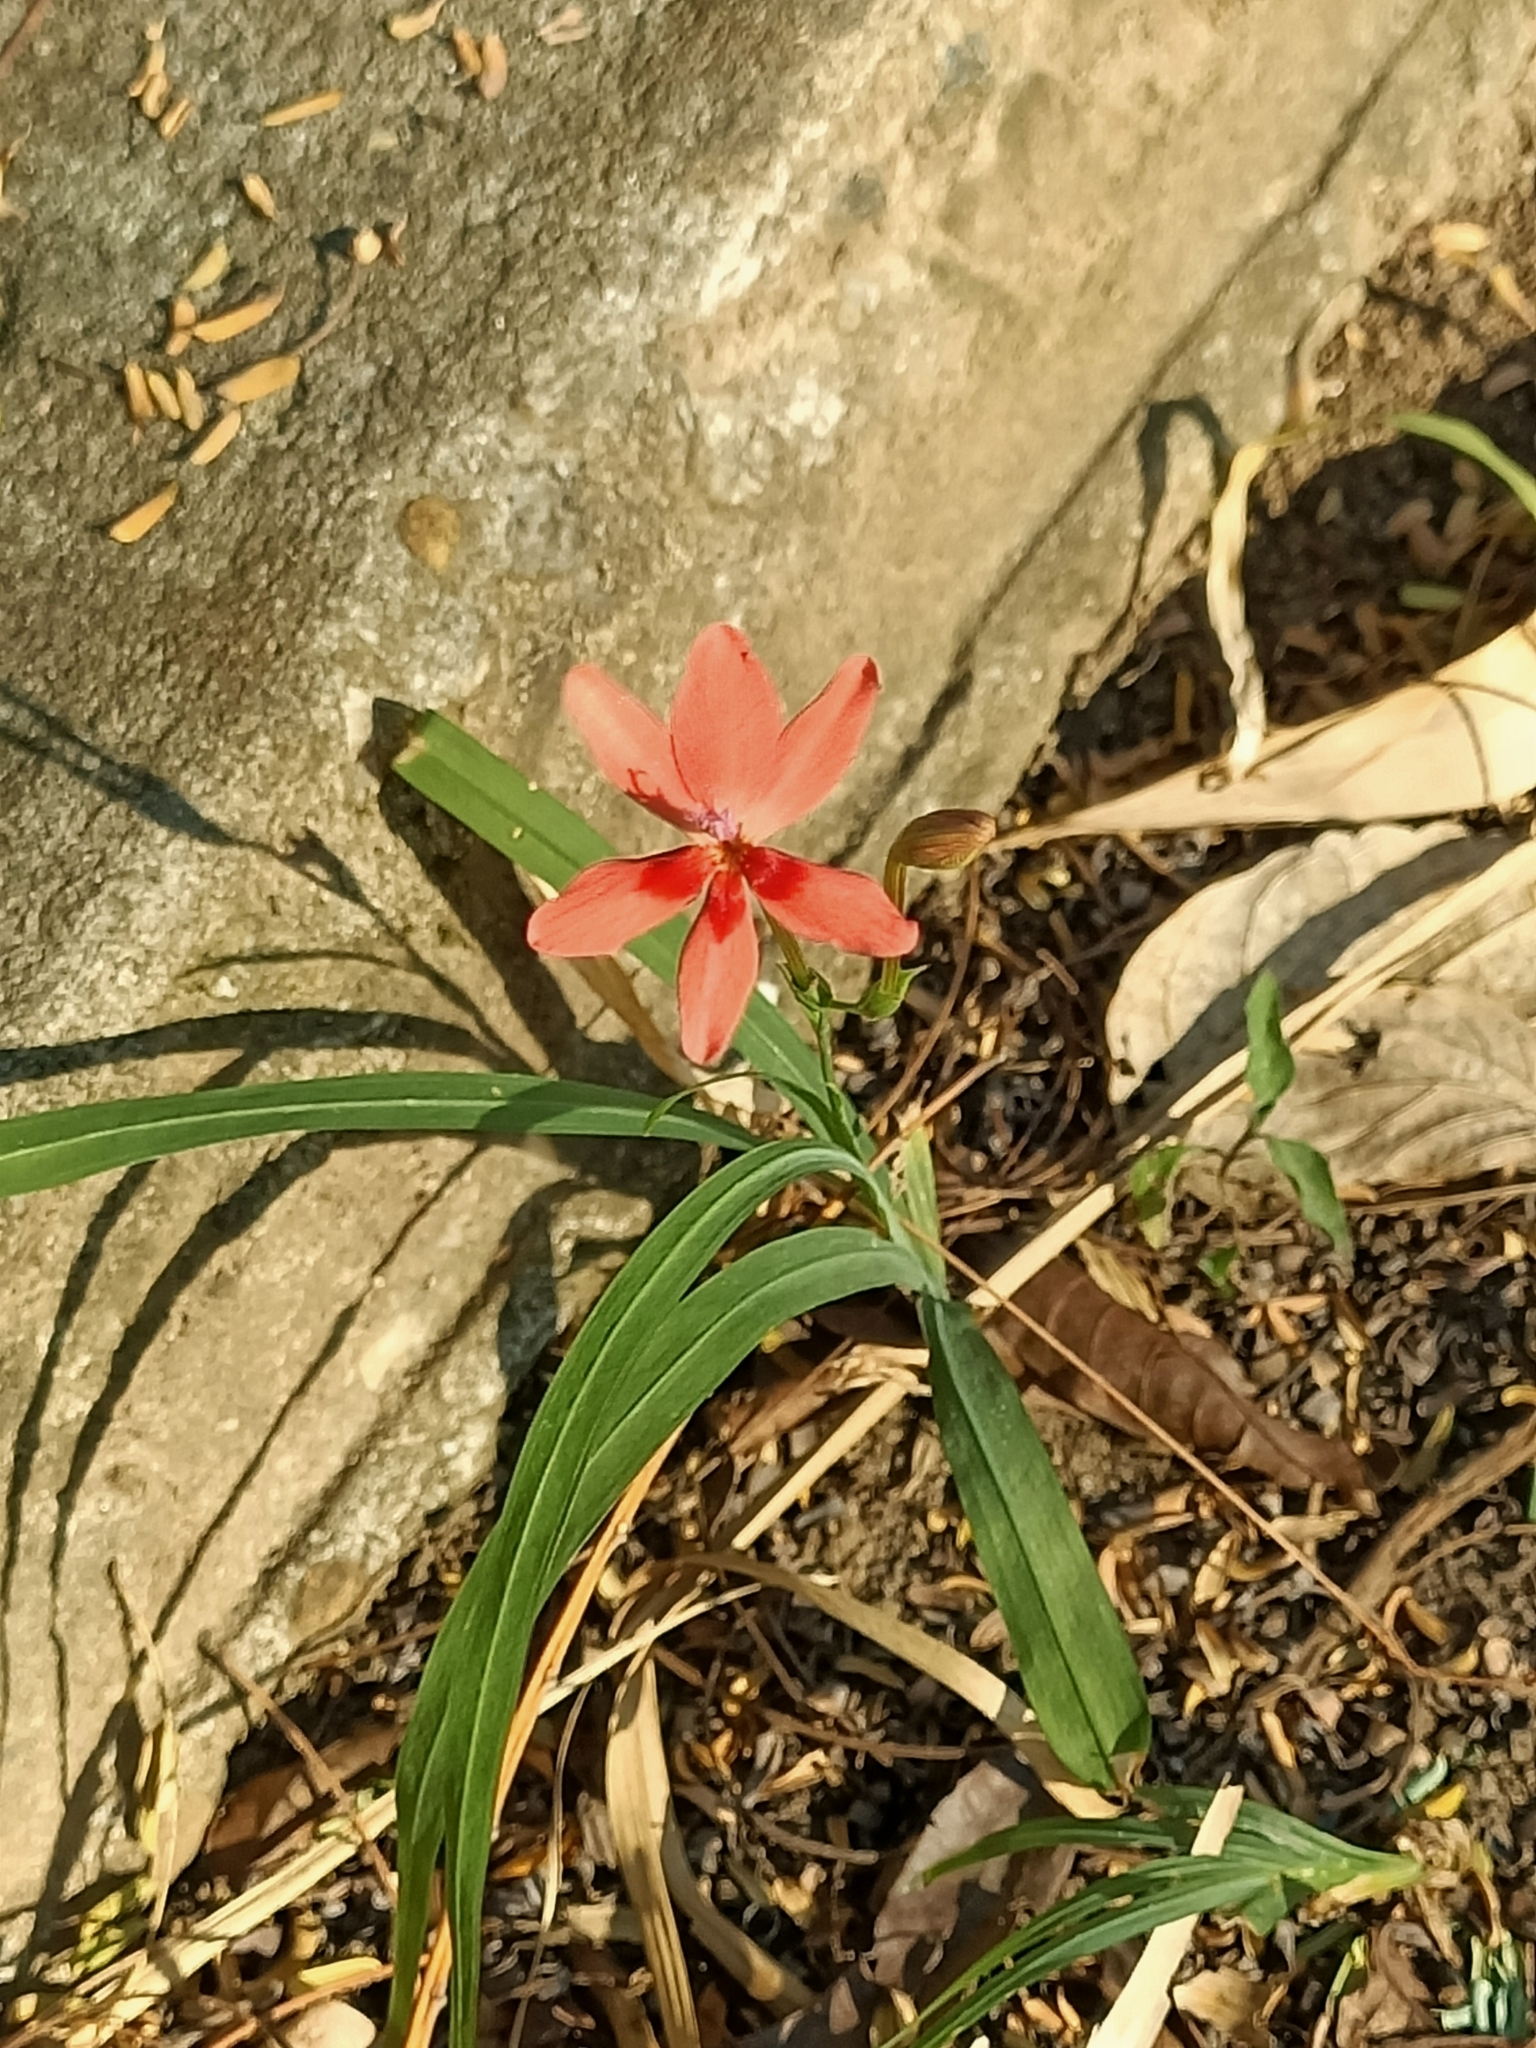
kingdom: Plantae
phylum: Tracheophyta
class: Liliopsida
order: Asparagales
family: Iridaceae
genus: Freesia
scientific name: Freesia laxa
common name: False freesia
